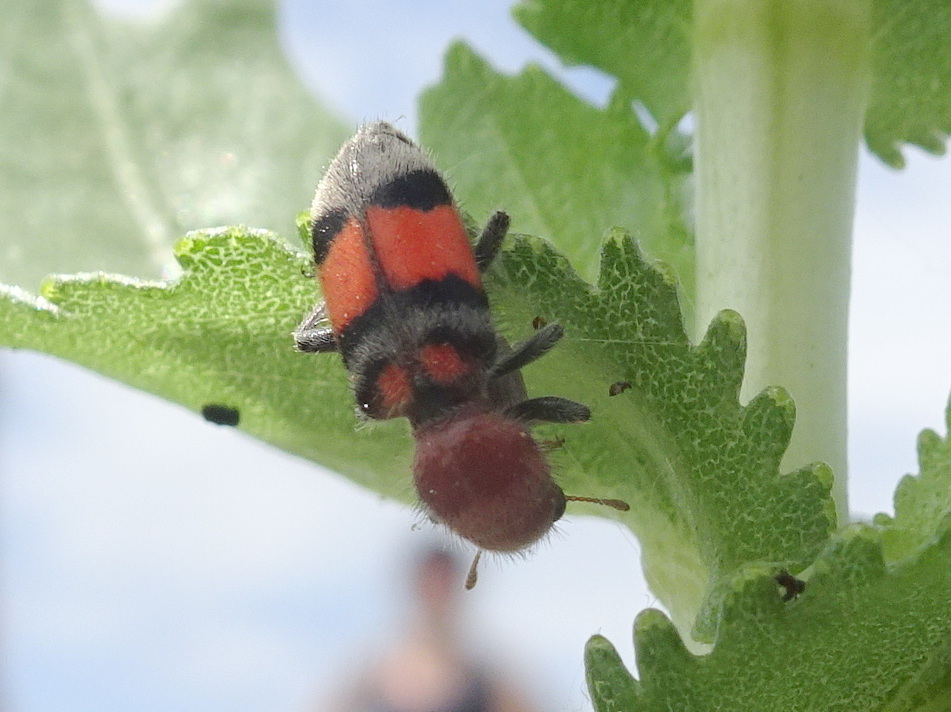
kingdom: Animalia
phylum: Arthropoda
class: Insecta
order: Coleoptera
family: Cleridae
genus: Enoclerus
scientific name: Enoclerus coccineus
